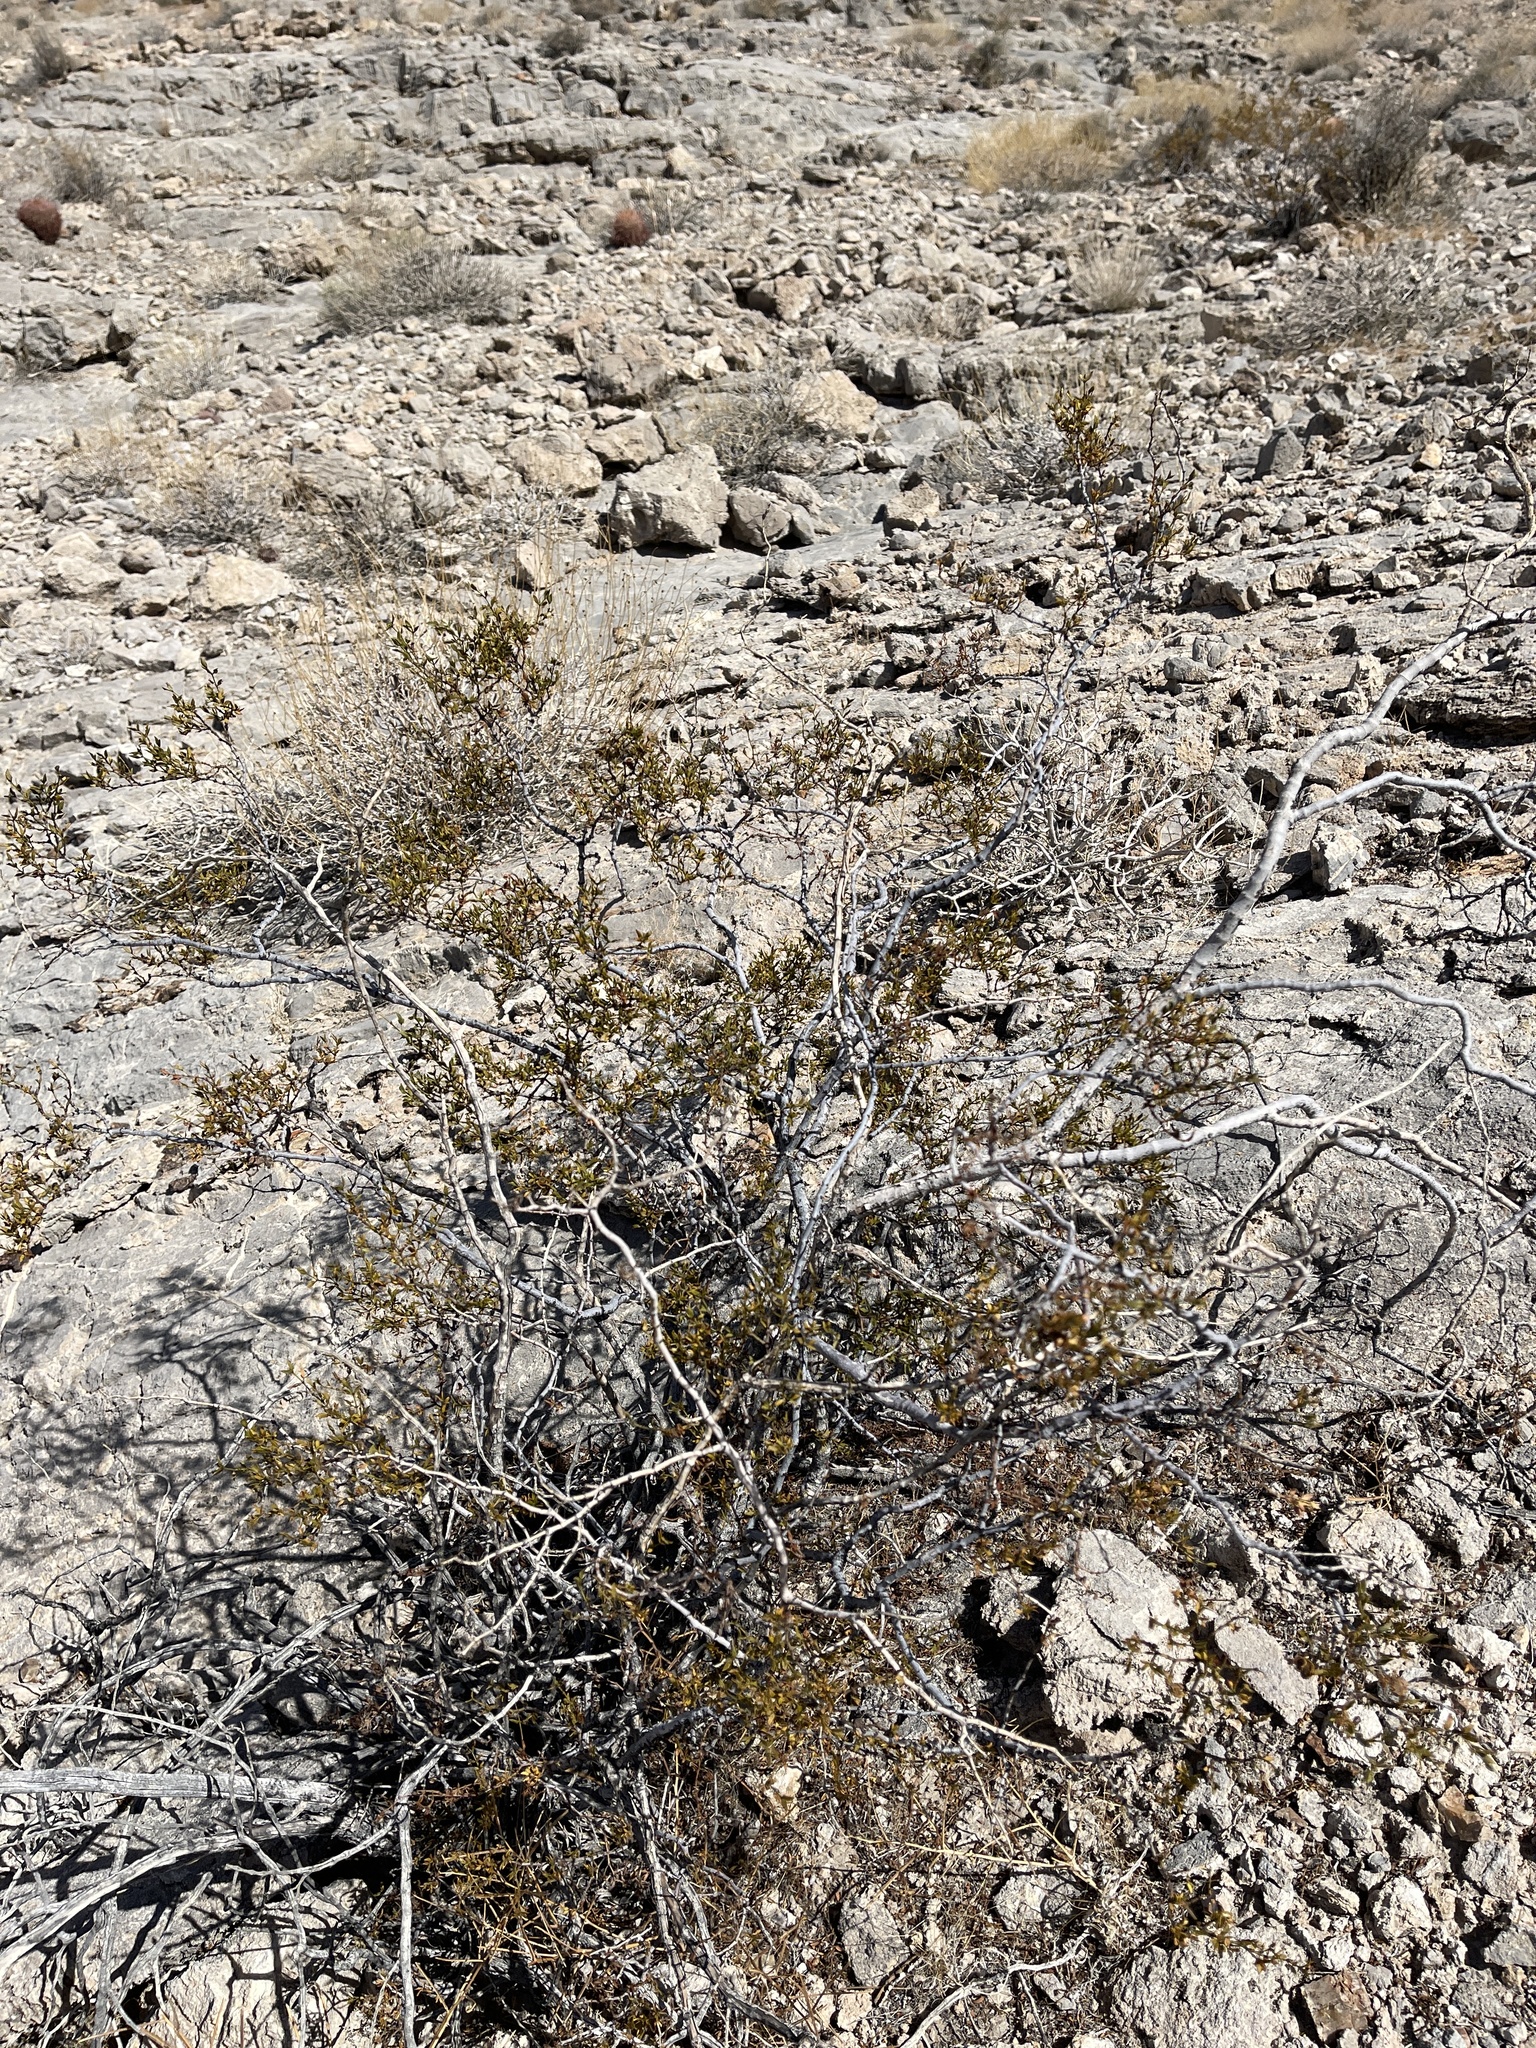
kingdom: Plantae
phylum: Tracheophyta
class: Magnoliopsida
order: Zygophyllales
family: Zygophyllaceae
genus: Larrea
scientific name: Larrea tridentata
